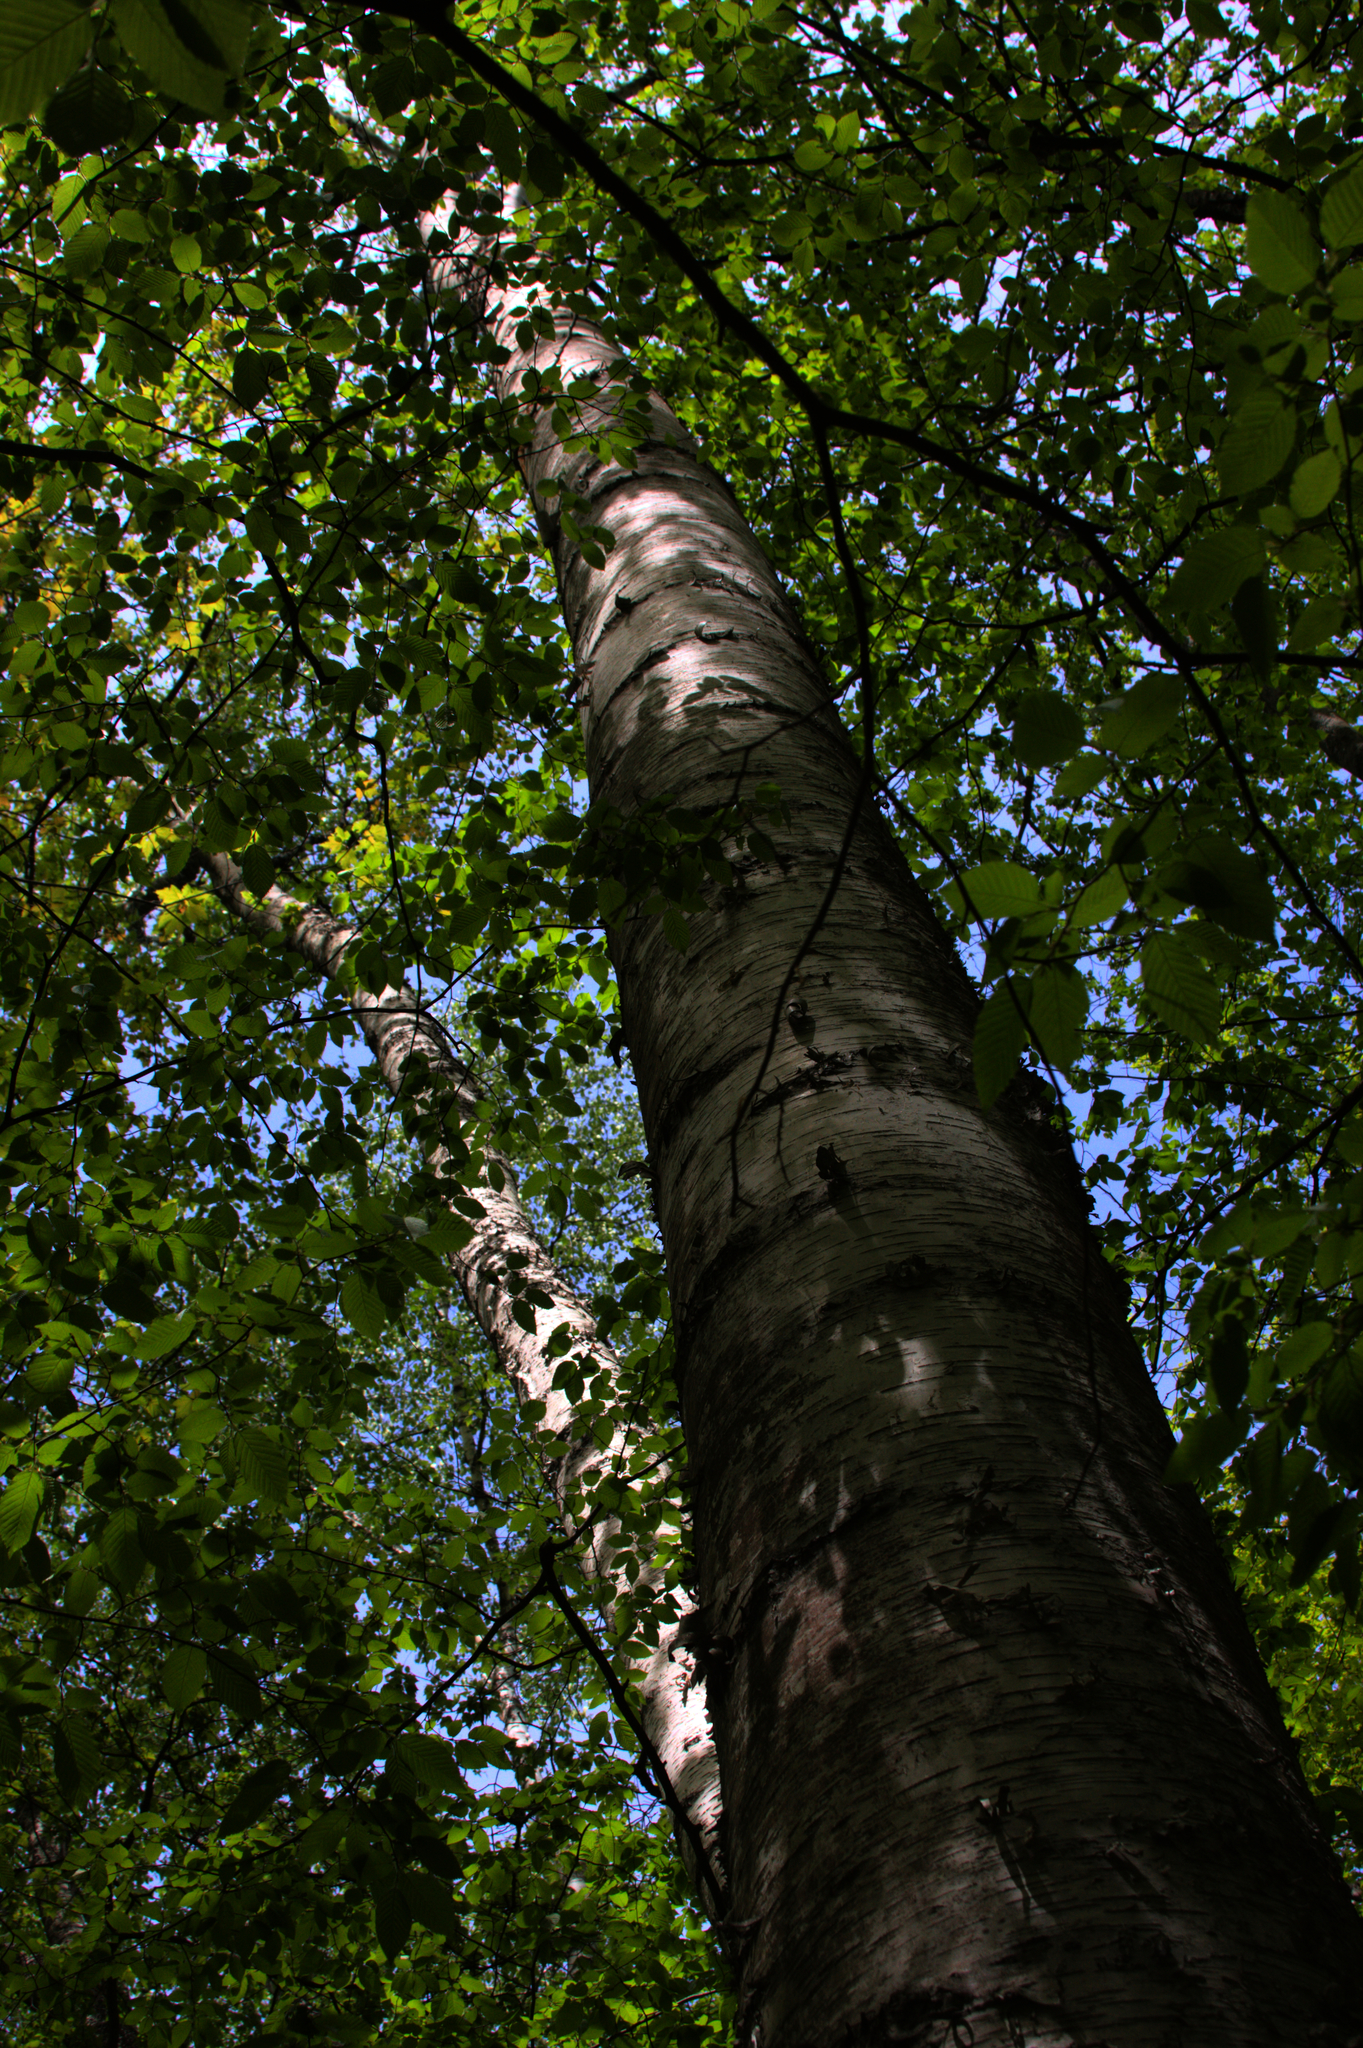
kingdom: Plantae
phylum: Tracheophyta
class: Magnoliopsida
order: Fagales
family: Betulaceae
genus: Betula
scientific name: Betula papyrifera
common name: Paper birch
